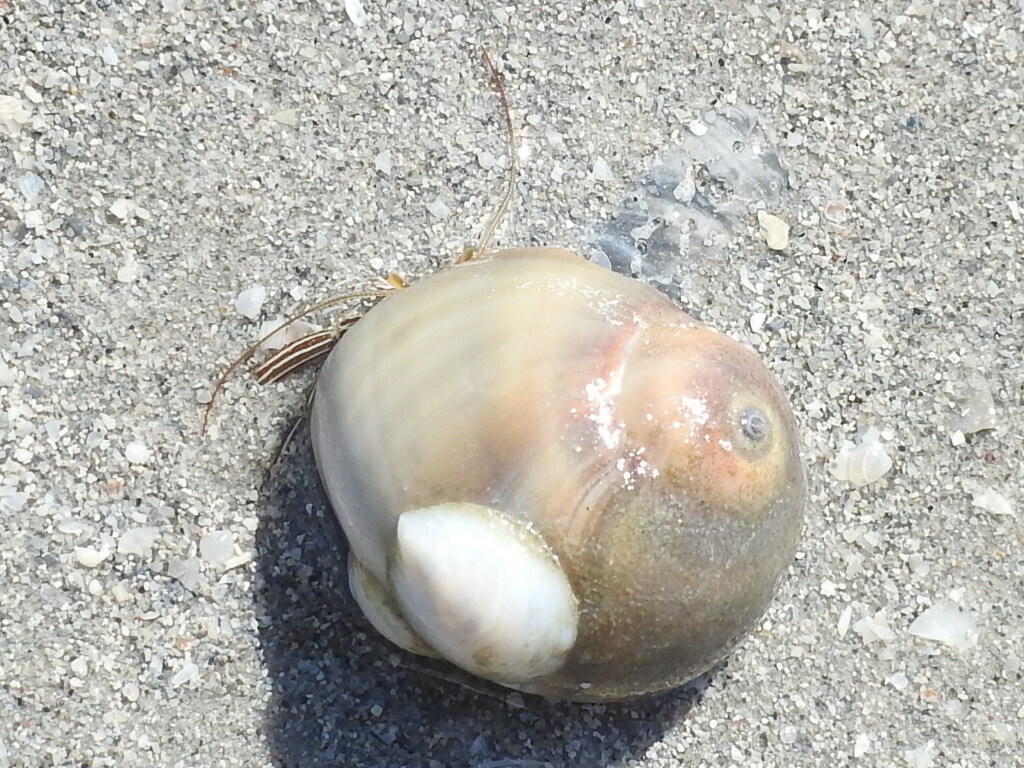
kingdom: Animalia
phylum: Arthropoda
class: Malacostraca
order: Decapoda
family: Diogenidae
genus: Clibanarius
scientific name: Clibanarius vittatus
